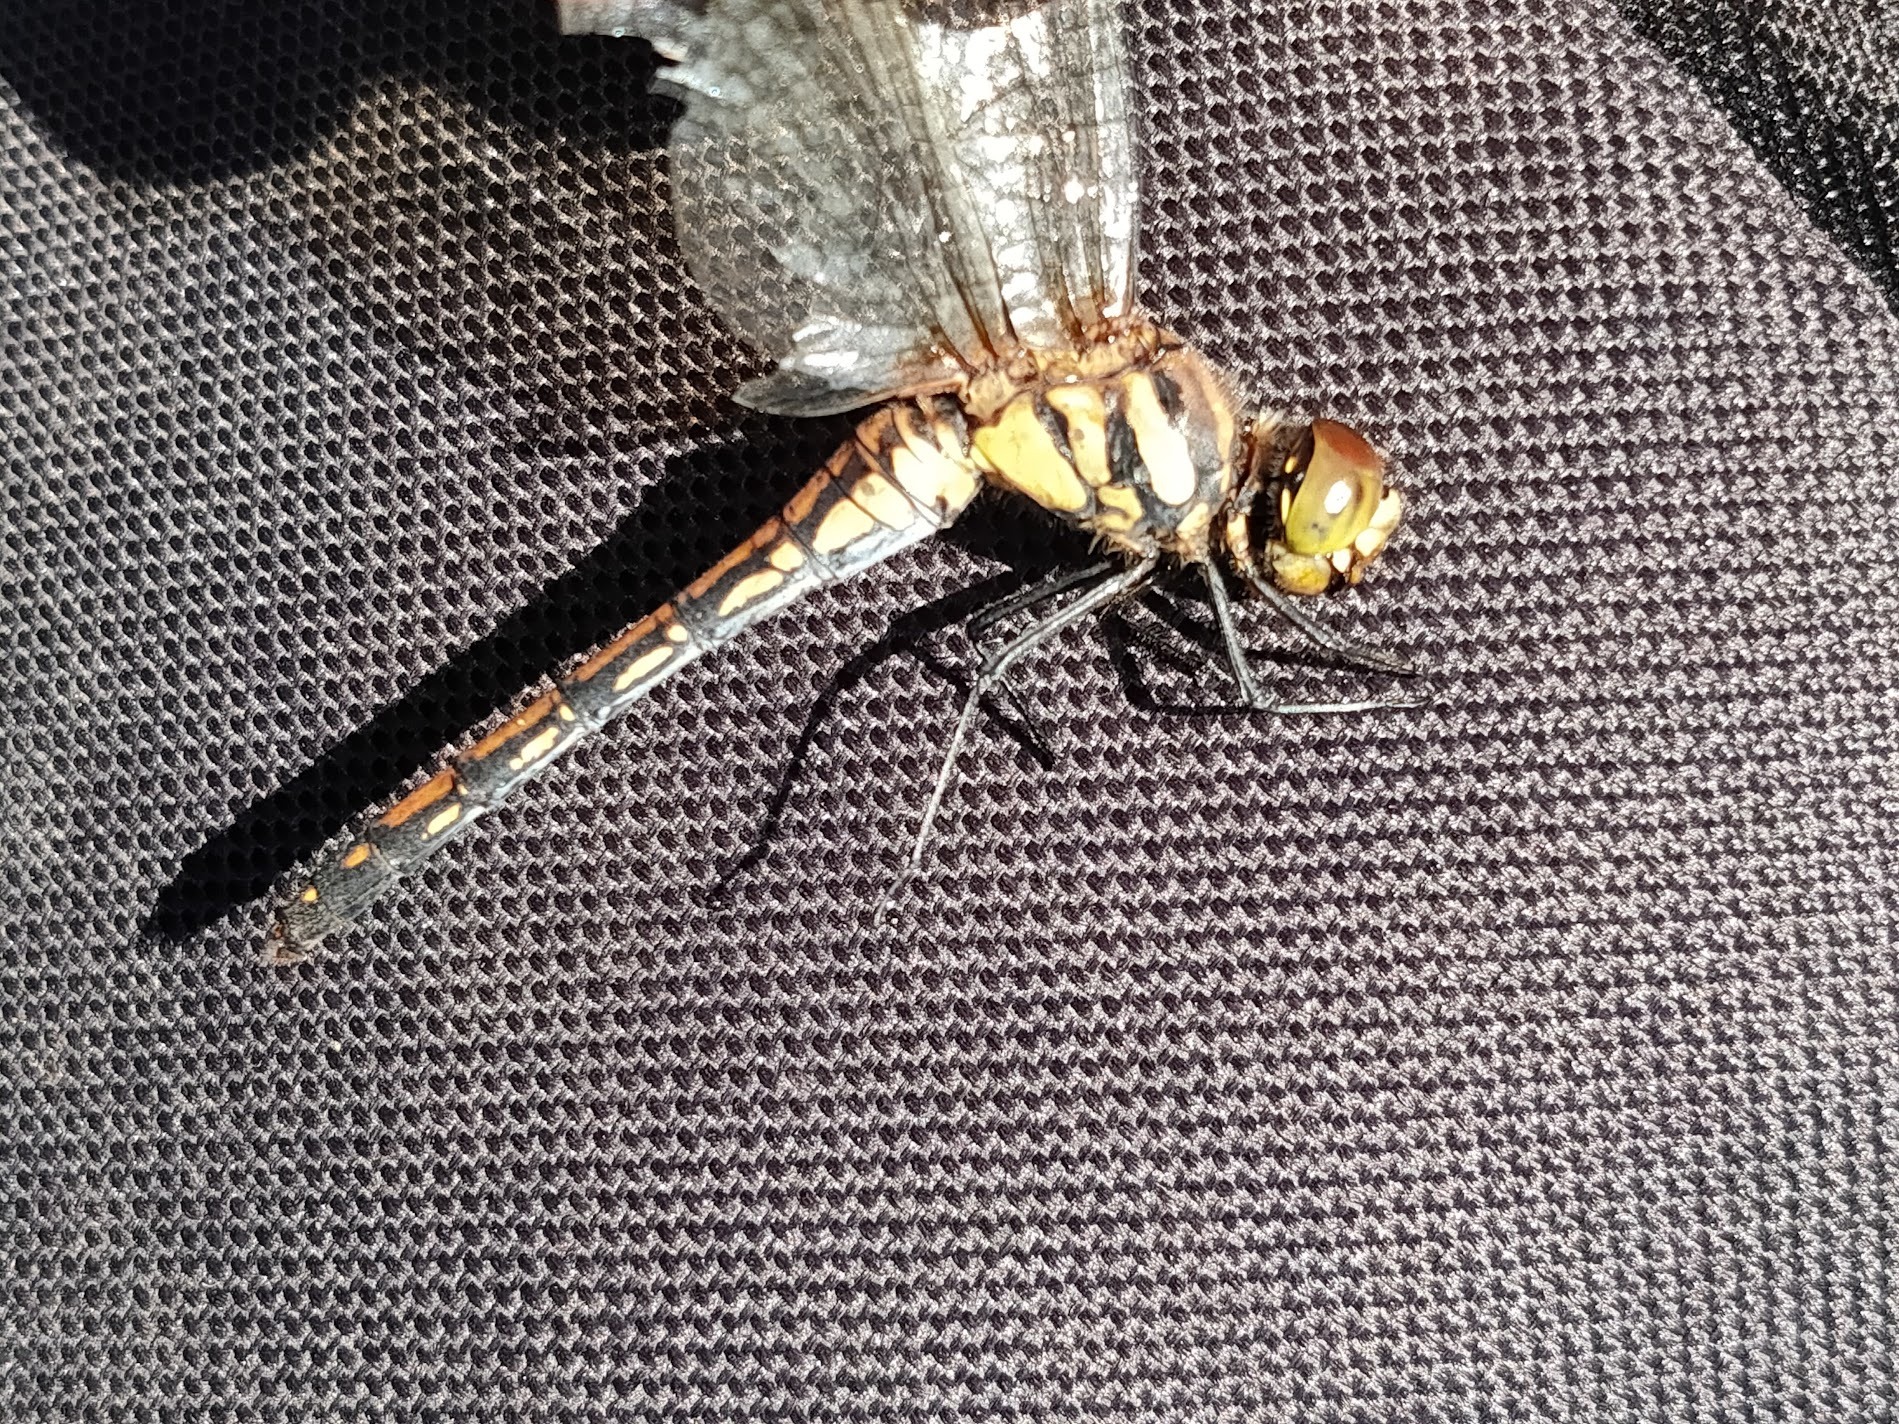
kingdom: Animalia
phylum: Arthropoda
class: Insecta
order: Odonata
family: Libellulidae
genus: Sympetrum
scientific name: Sympetrum infuscatum
